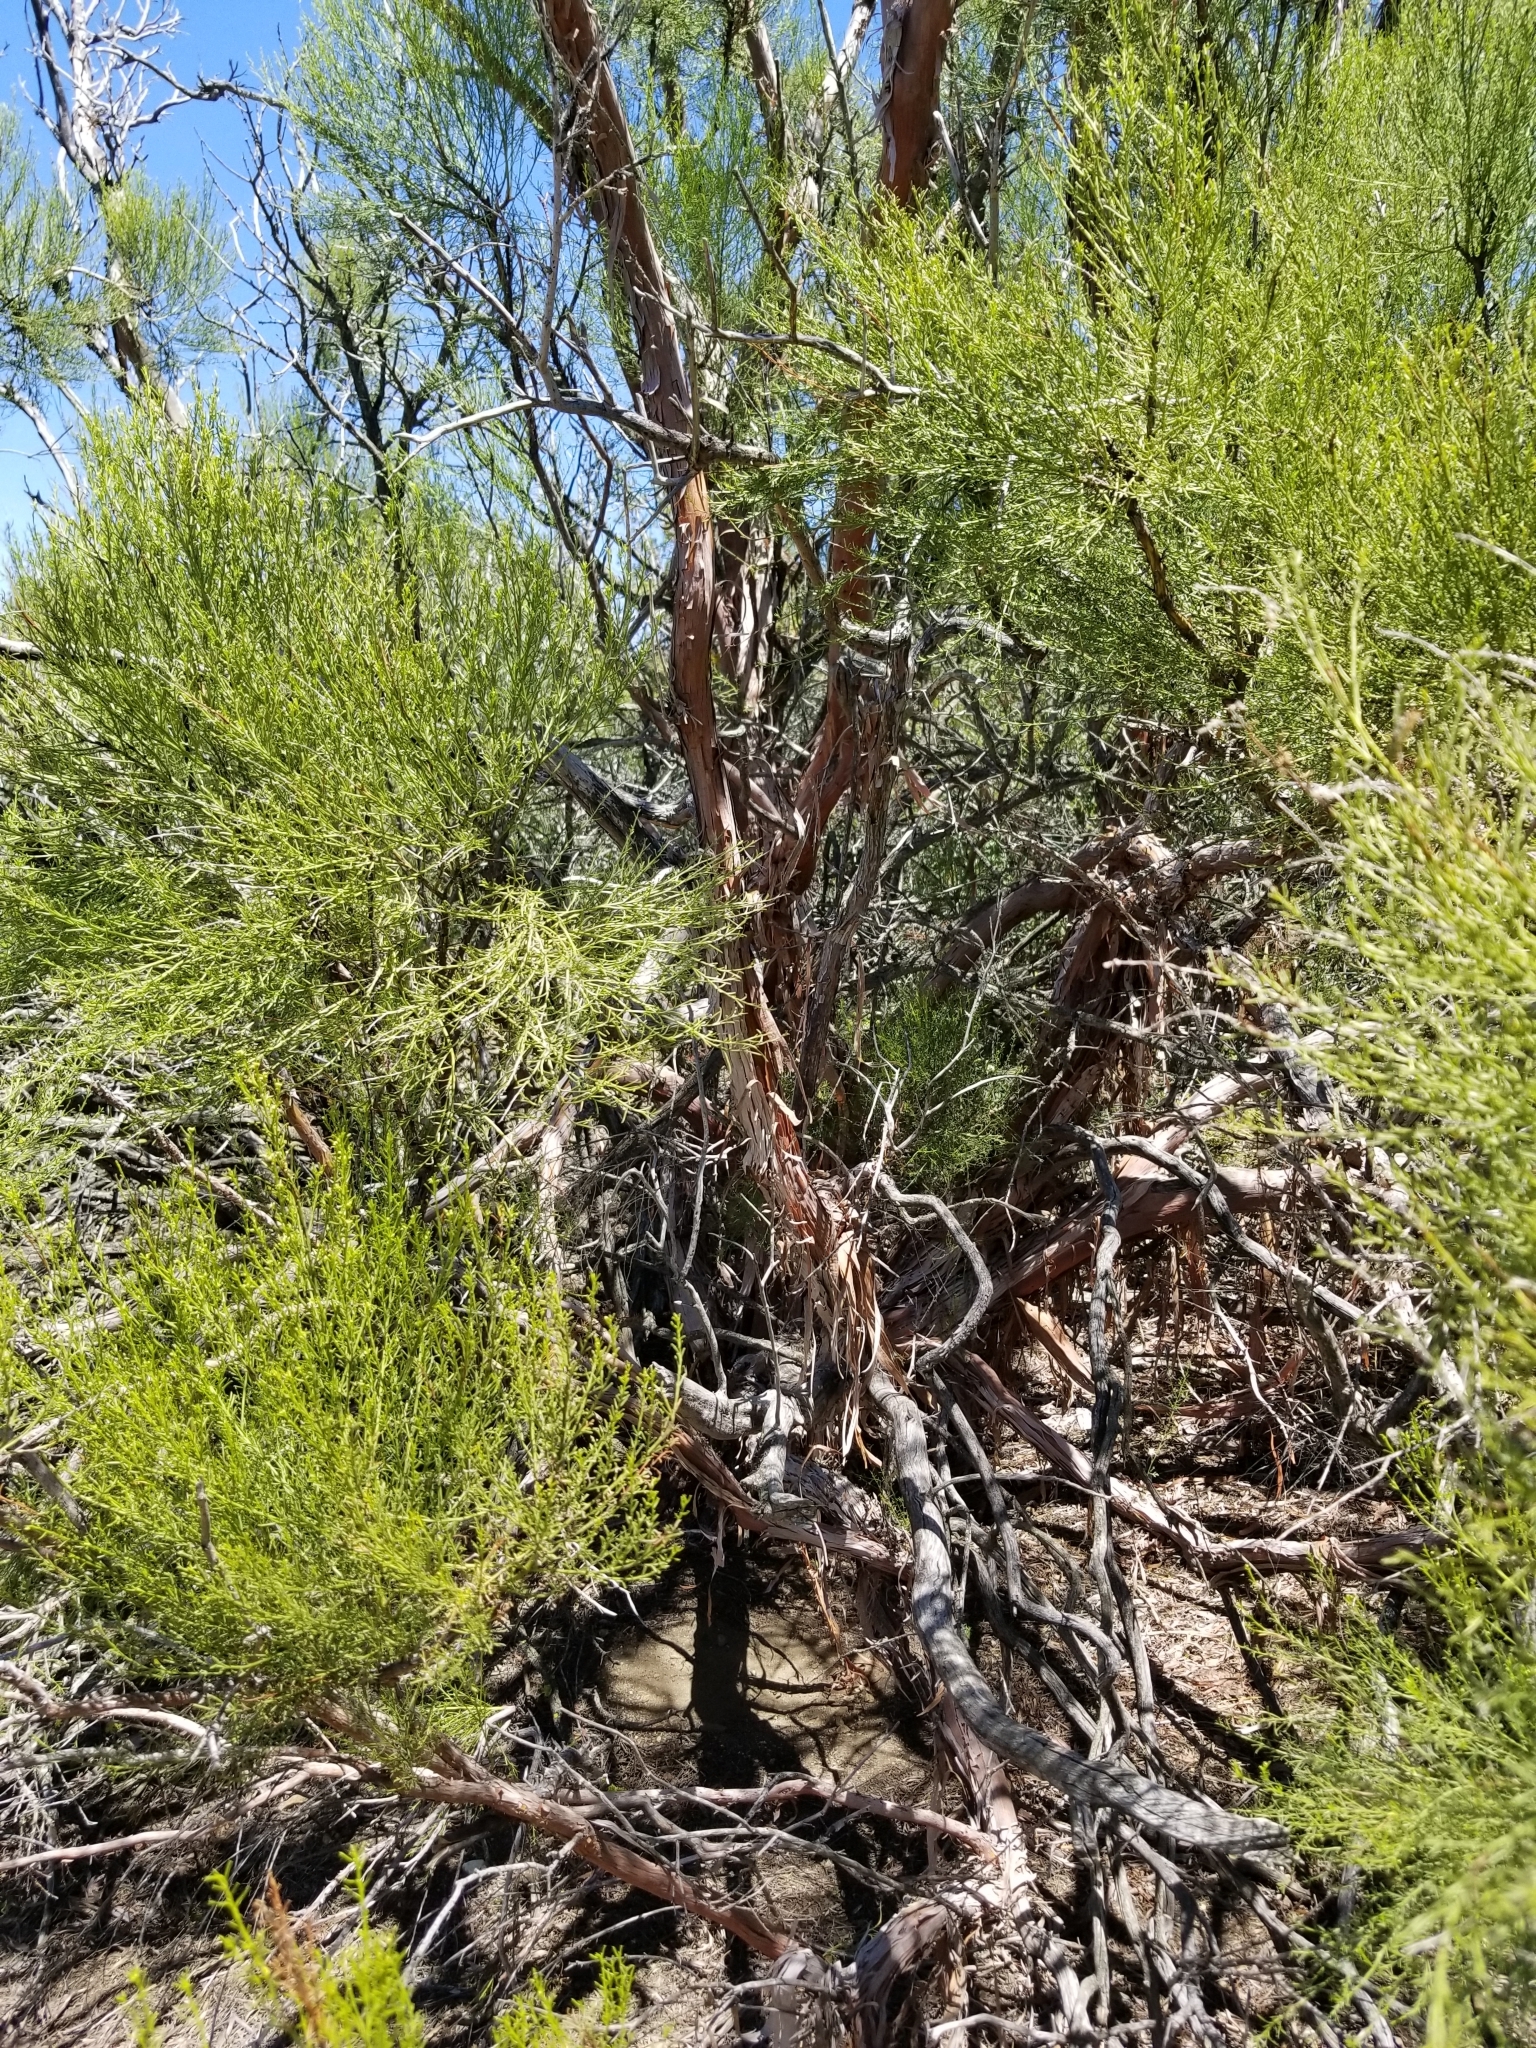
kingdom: Plantae
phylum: Tracheophyta
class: Magnoliopsida
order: Rosales
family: Rosaceae
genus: Adenostoma
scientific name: Adenostoma sparsifolium
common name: Red shank
